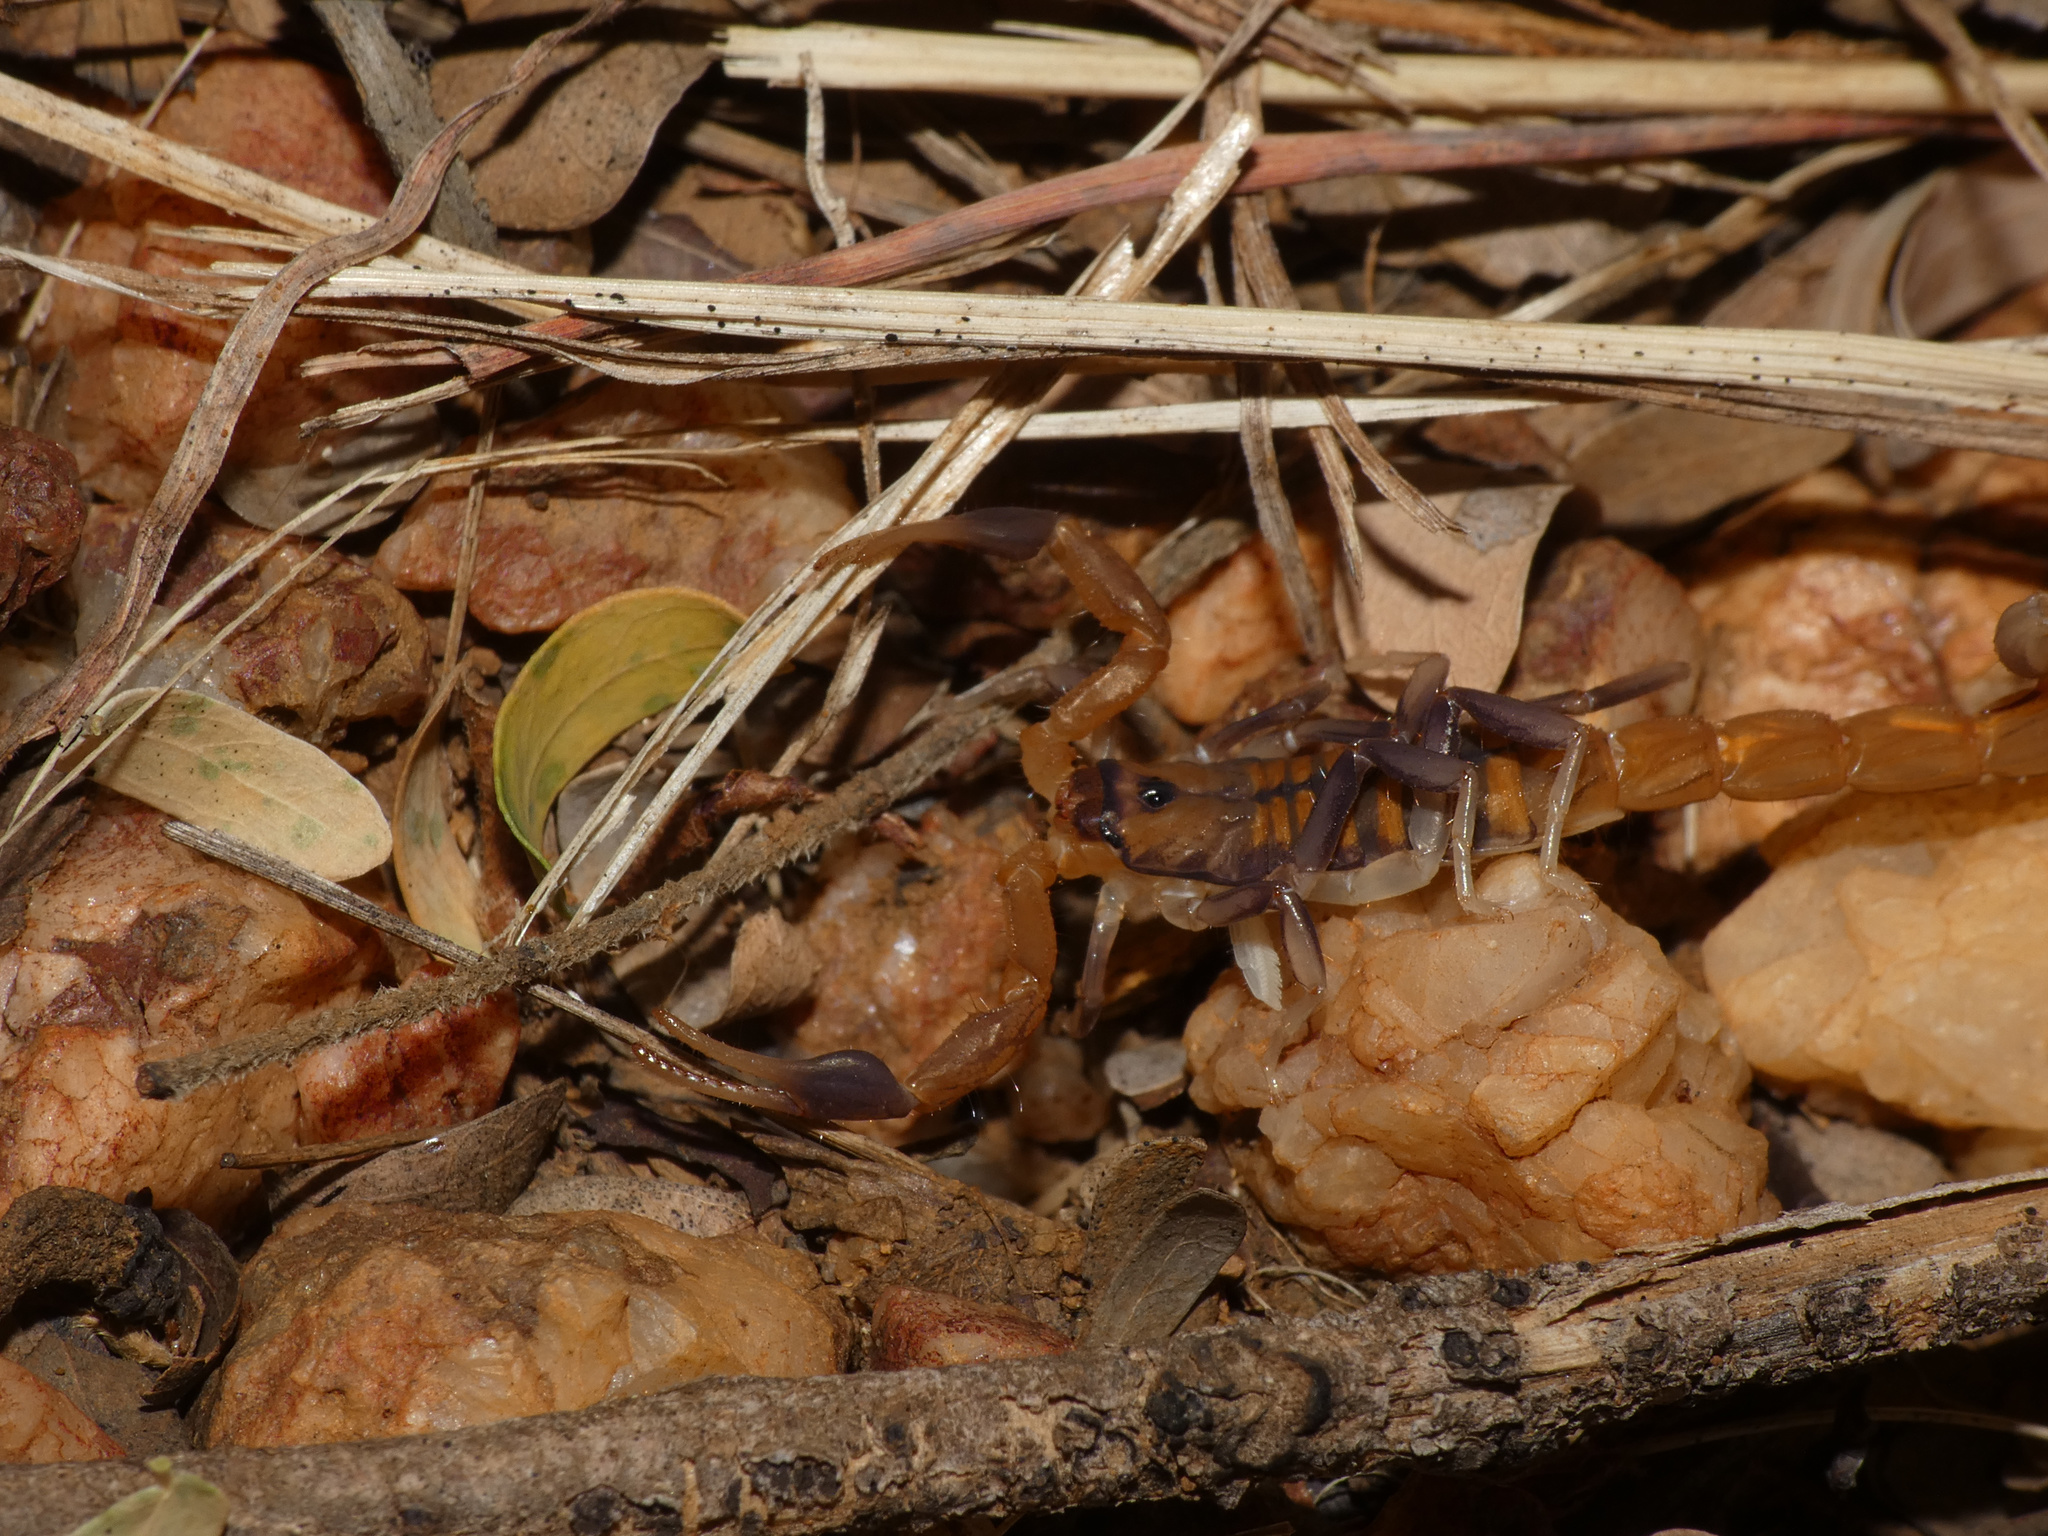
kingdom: Animalia
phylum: Arthropoda
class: Arachnida
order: Scorpiones
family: Buthidae
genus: Uroplectes
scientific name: Uroplectes planimanus
